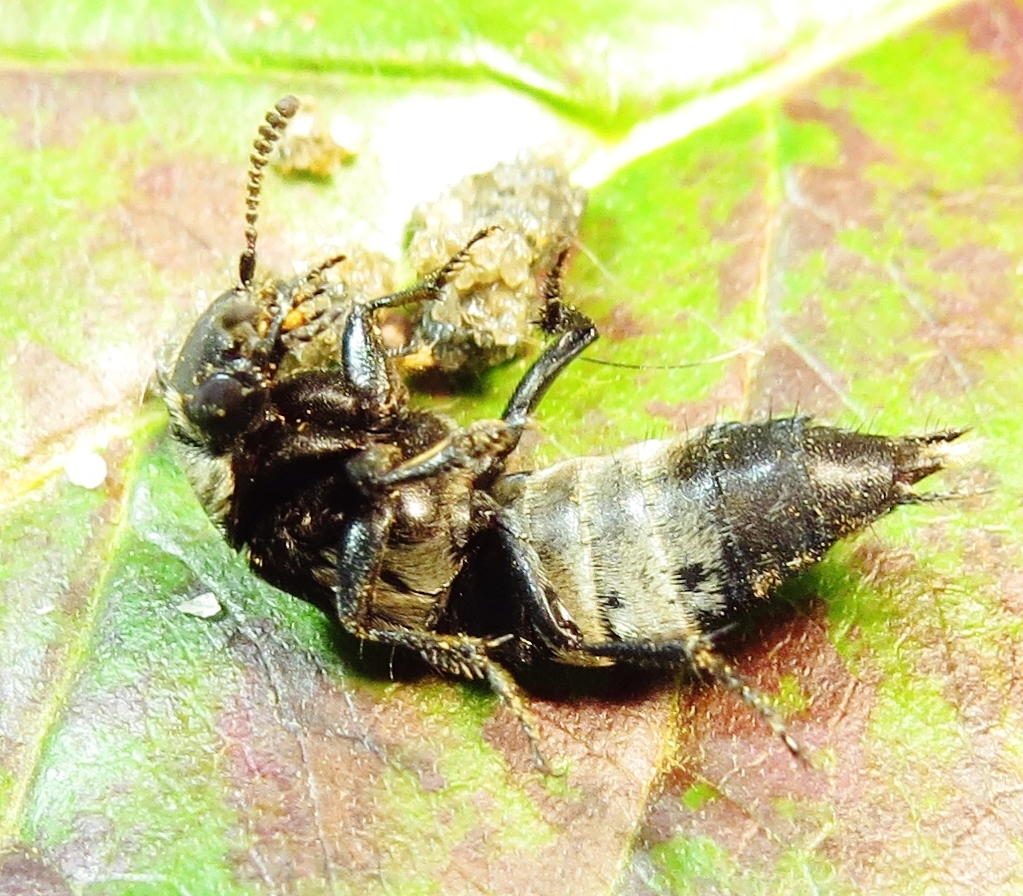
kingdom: Animalia
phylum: Arthropoda
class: Insecta
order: Coleoptera
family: Staphylinidae
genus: Creophilus
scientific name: Creophilus maxillosus
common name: Hairy rove beetle
